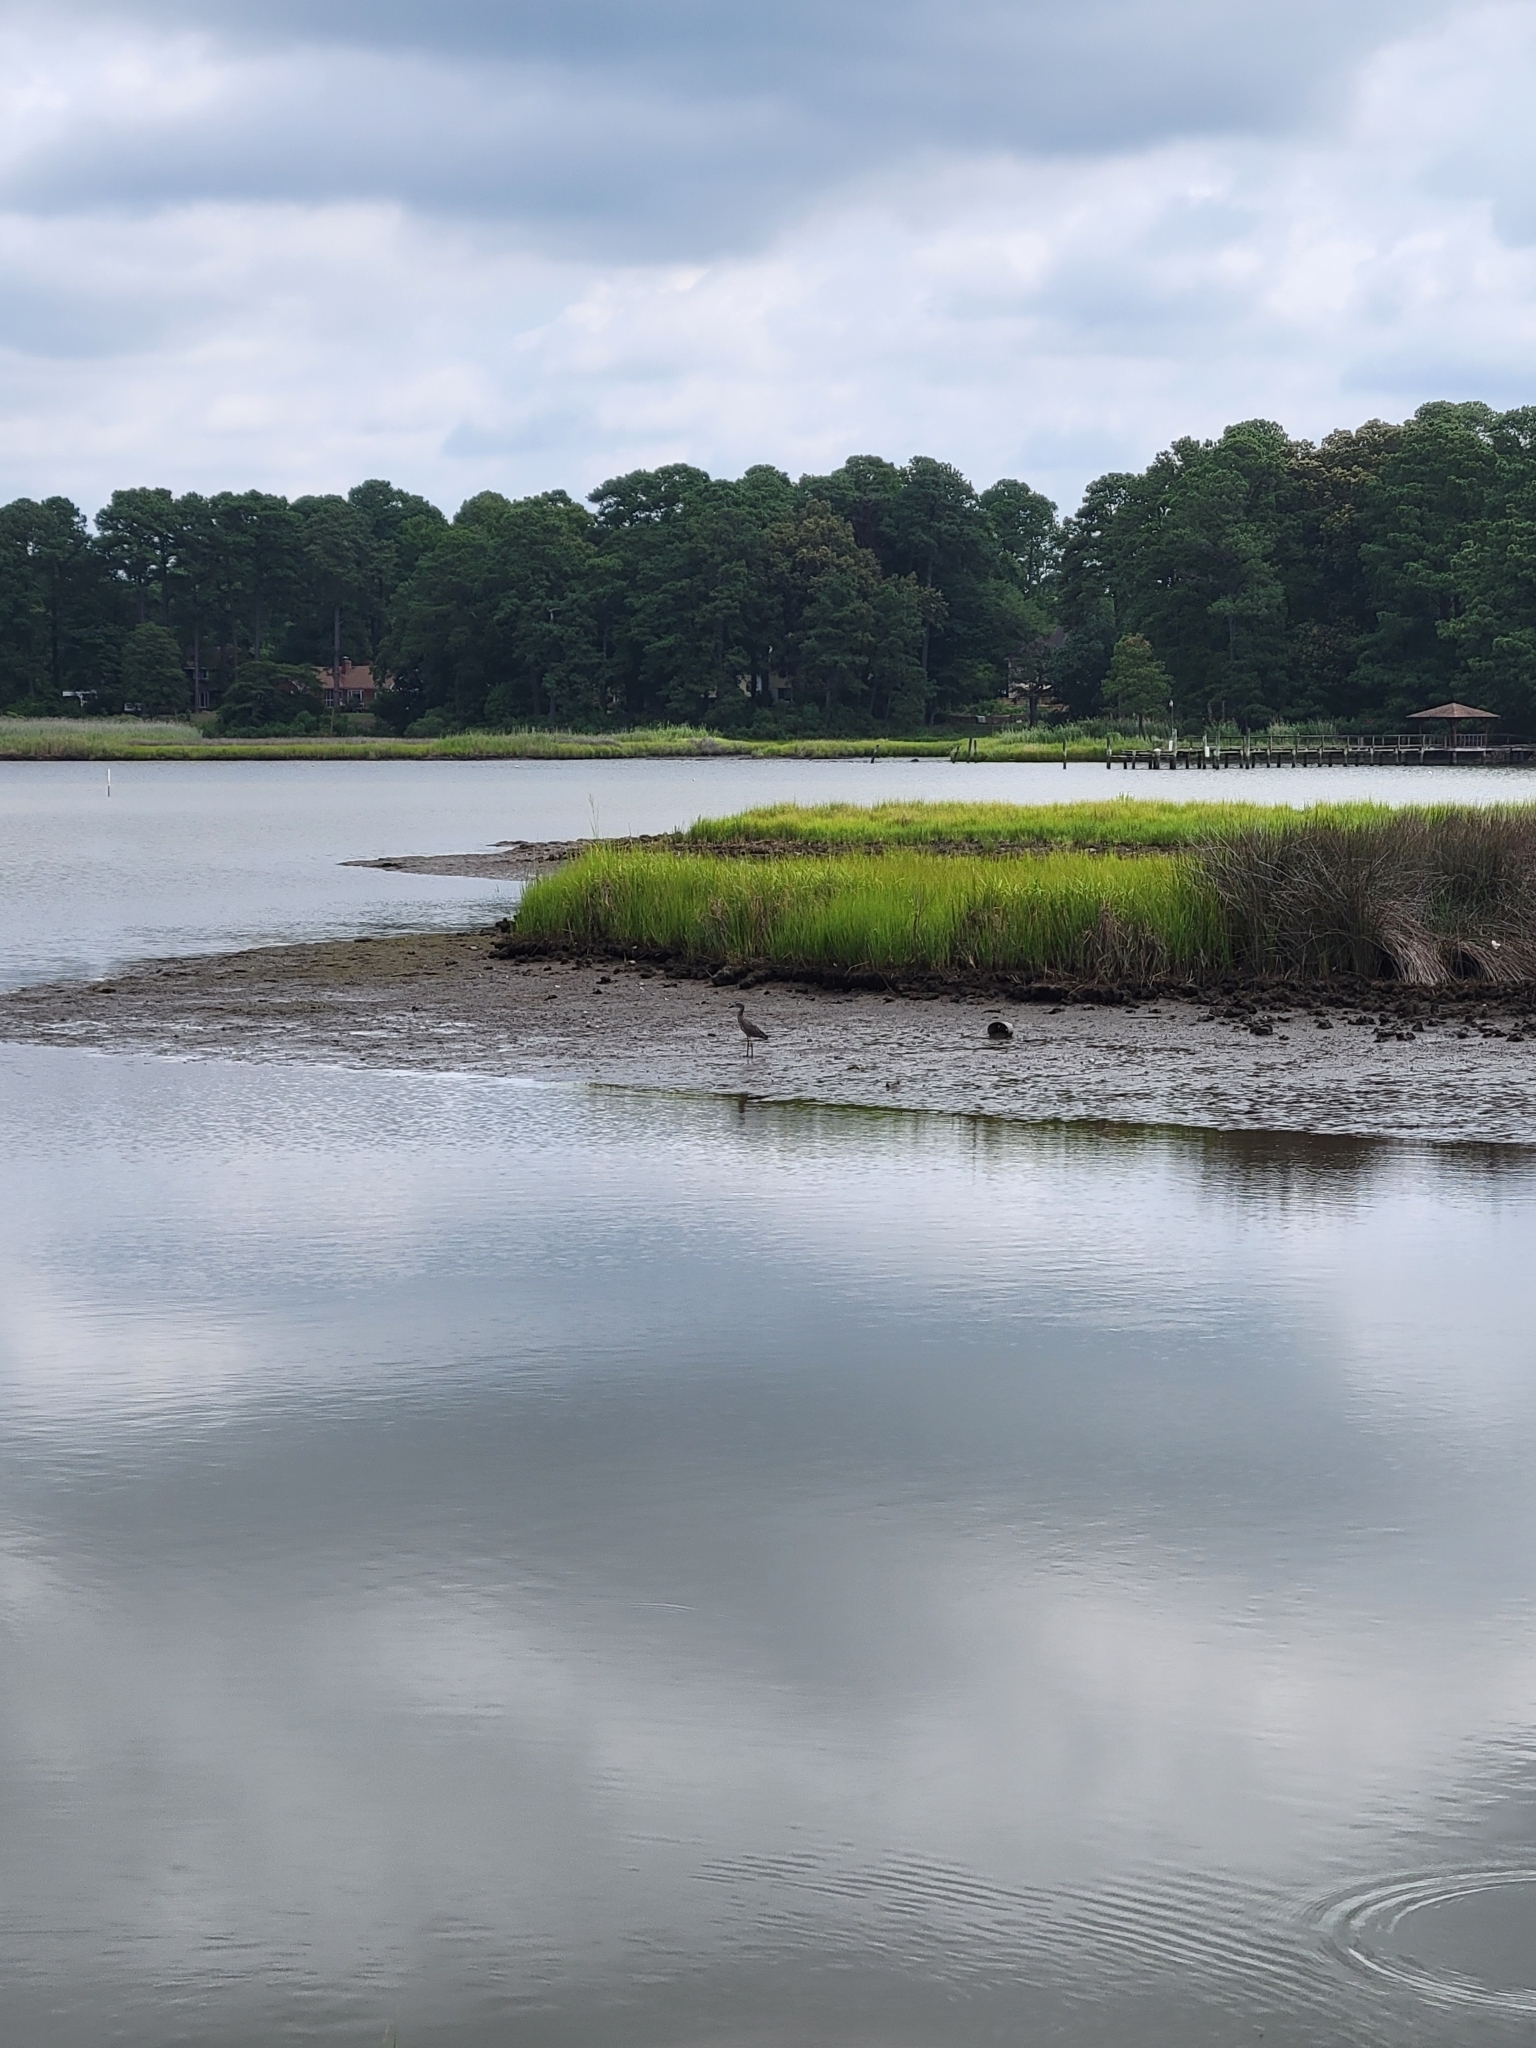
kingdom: Animalia
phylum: Chordata
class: Aves
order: Pelecaniformes
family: Ardeidae
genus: Nyctanassa
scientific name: Nyctanassa violacea
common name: Yellow-crowned night heron
